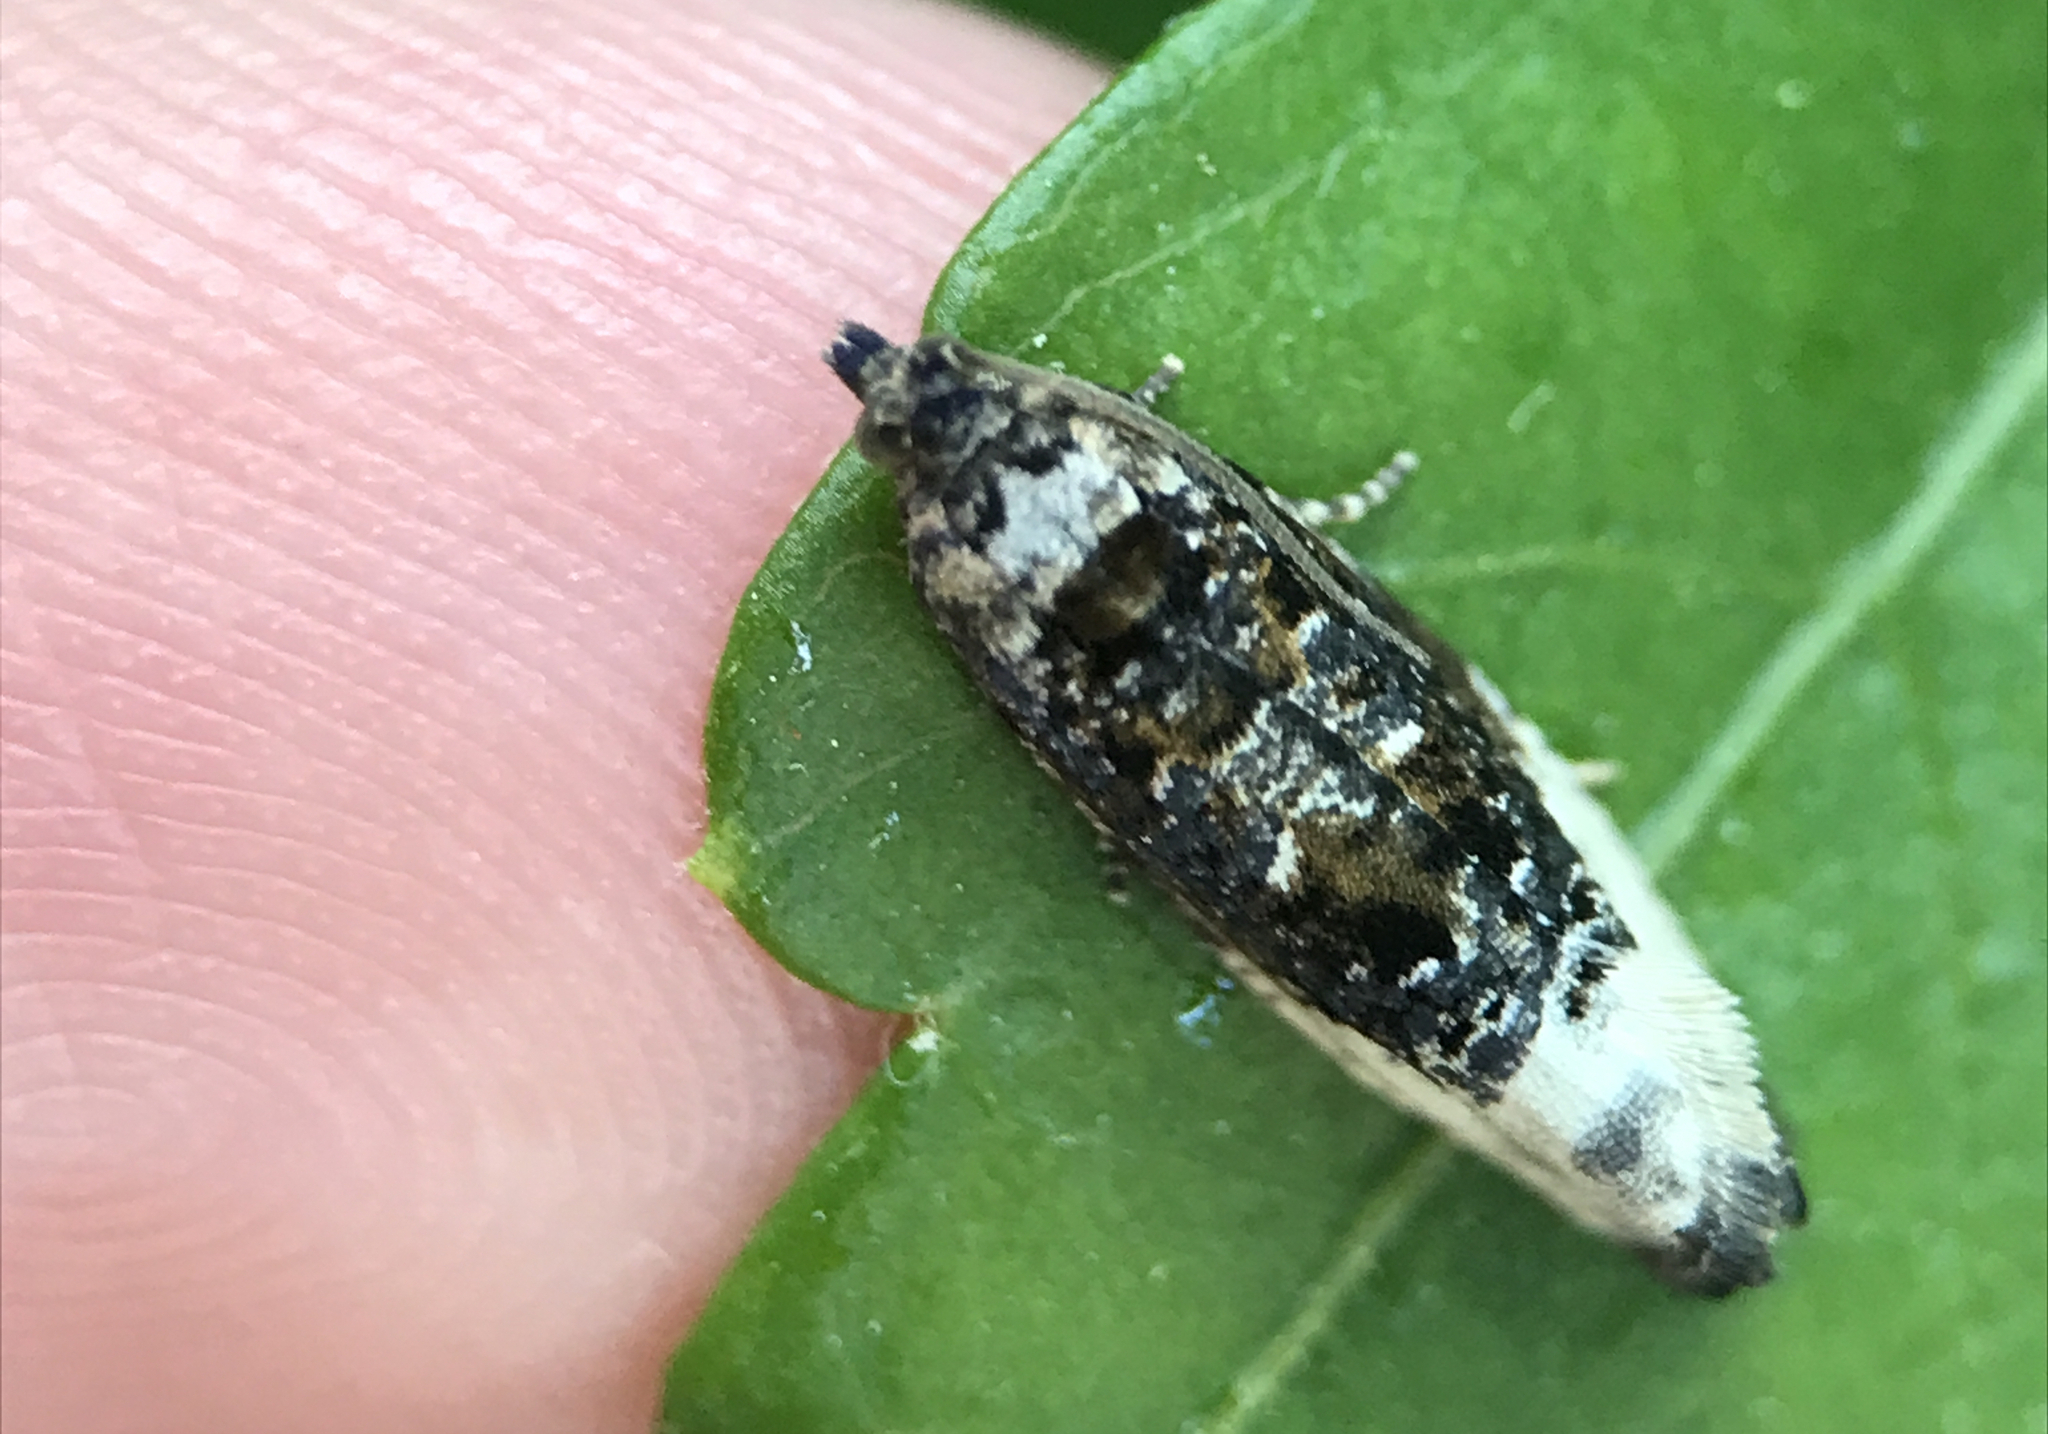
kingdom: Animalia
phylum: Arthropoda
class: Insecta
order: Lepidoptera
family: Tortricidae
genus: Hedya
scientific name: Hedya nubiferana
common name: Marbled orchard tortrix
